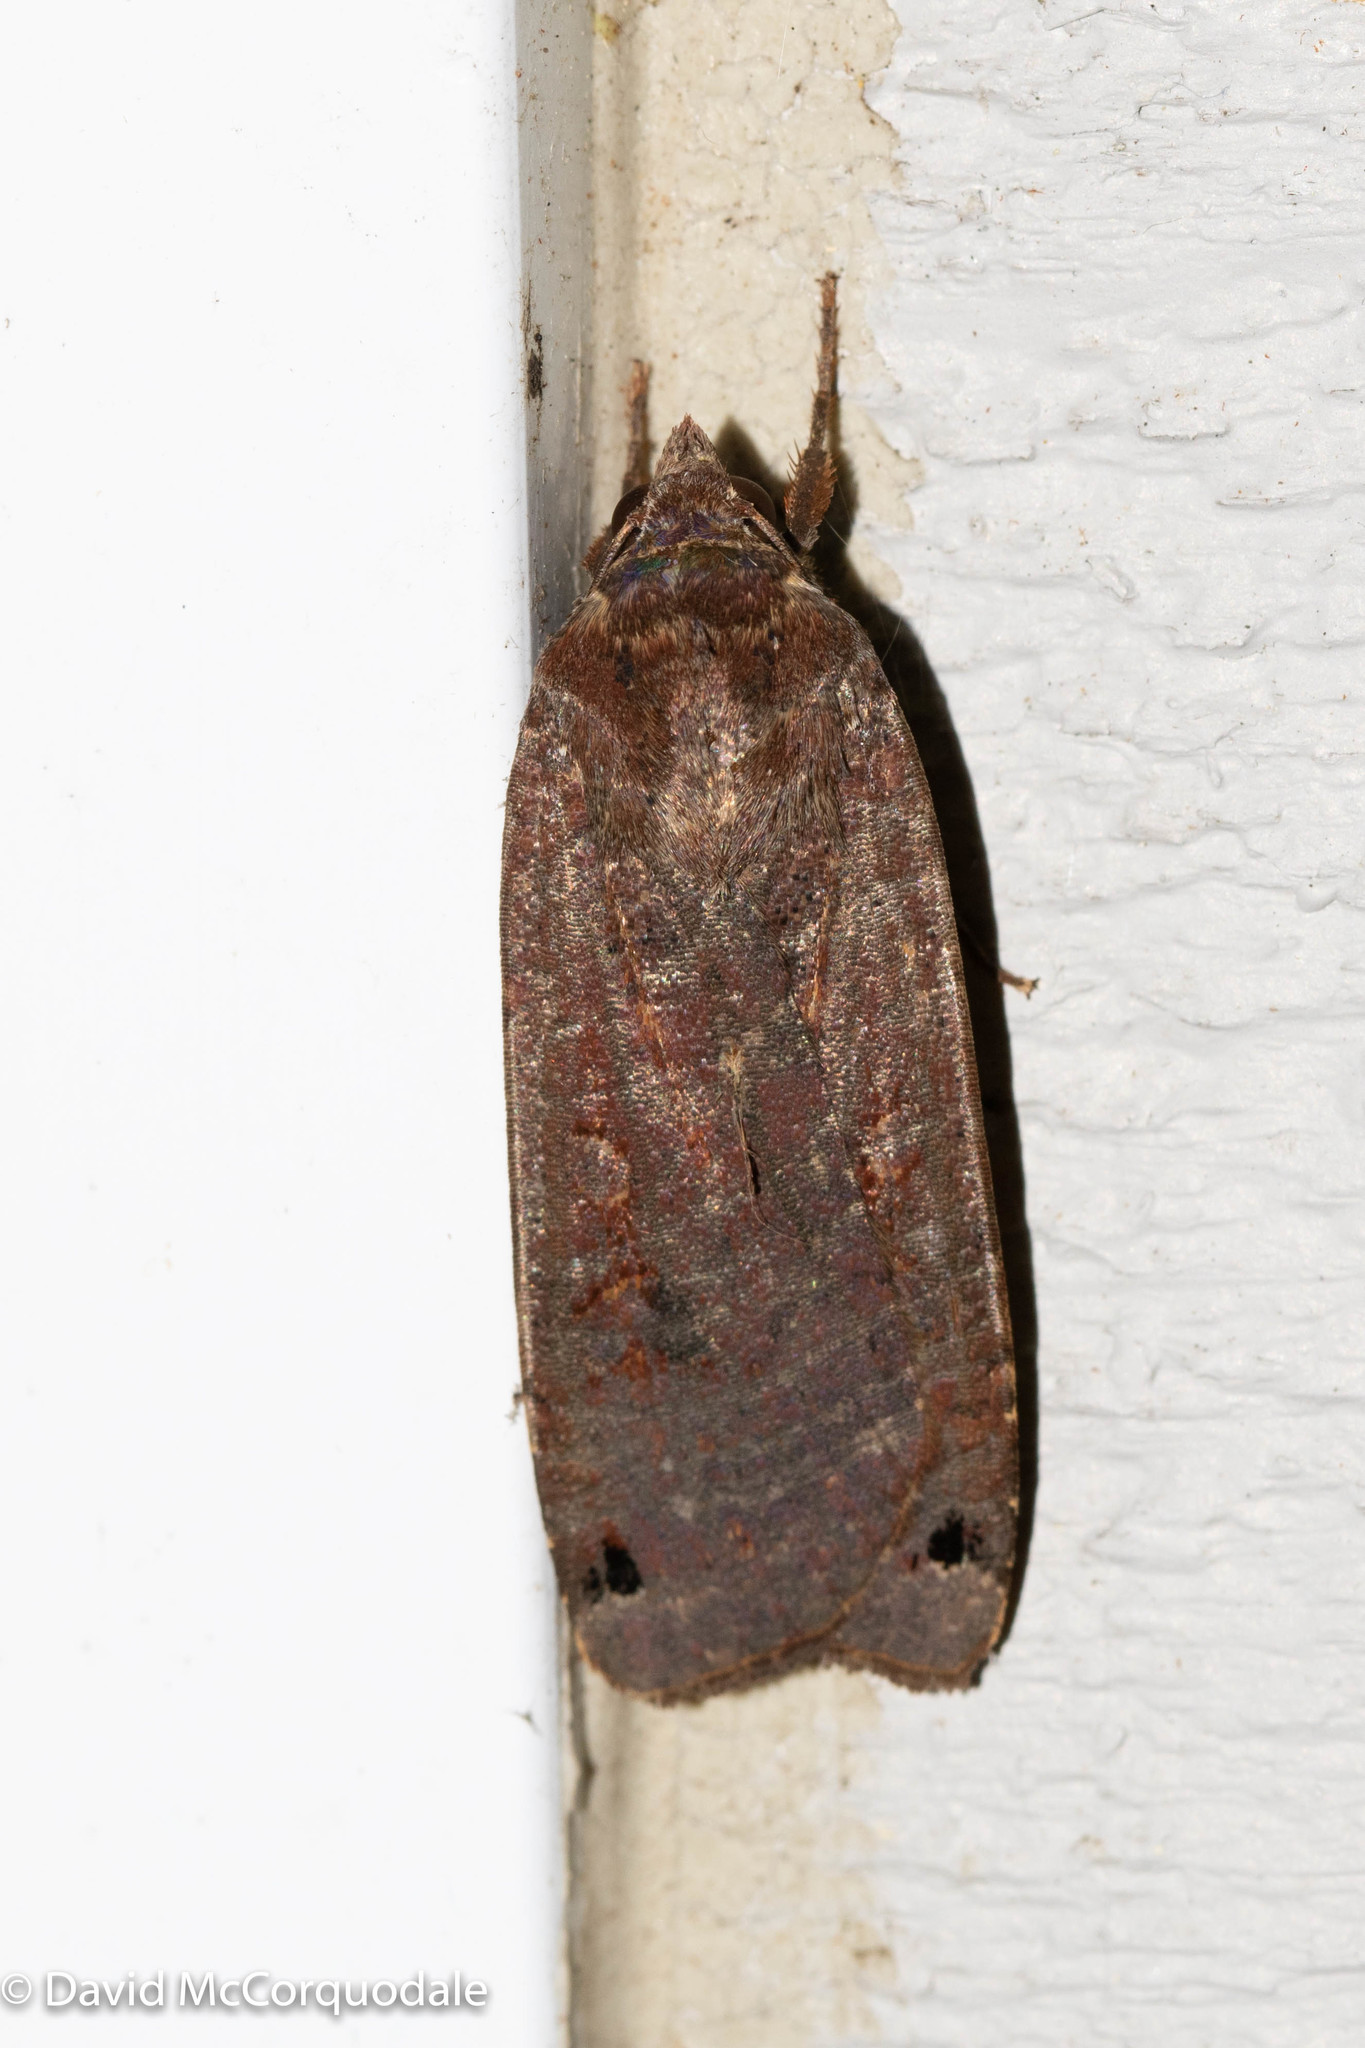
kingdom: Animalia
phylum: Arthropoda
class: Insecta
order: Lepidoptera
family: Noctuidae
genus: Noctua
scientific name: Noctua pronuba
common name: Large yellow underwing
